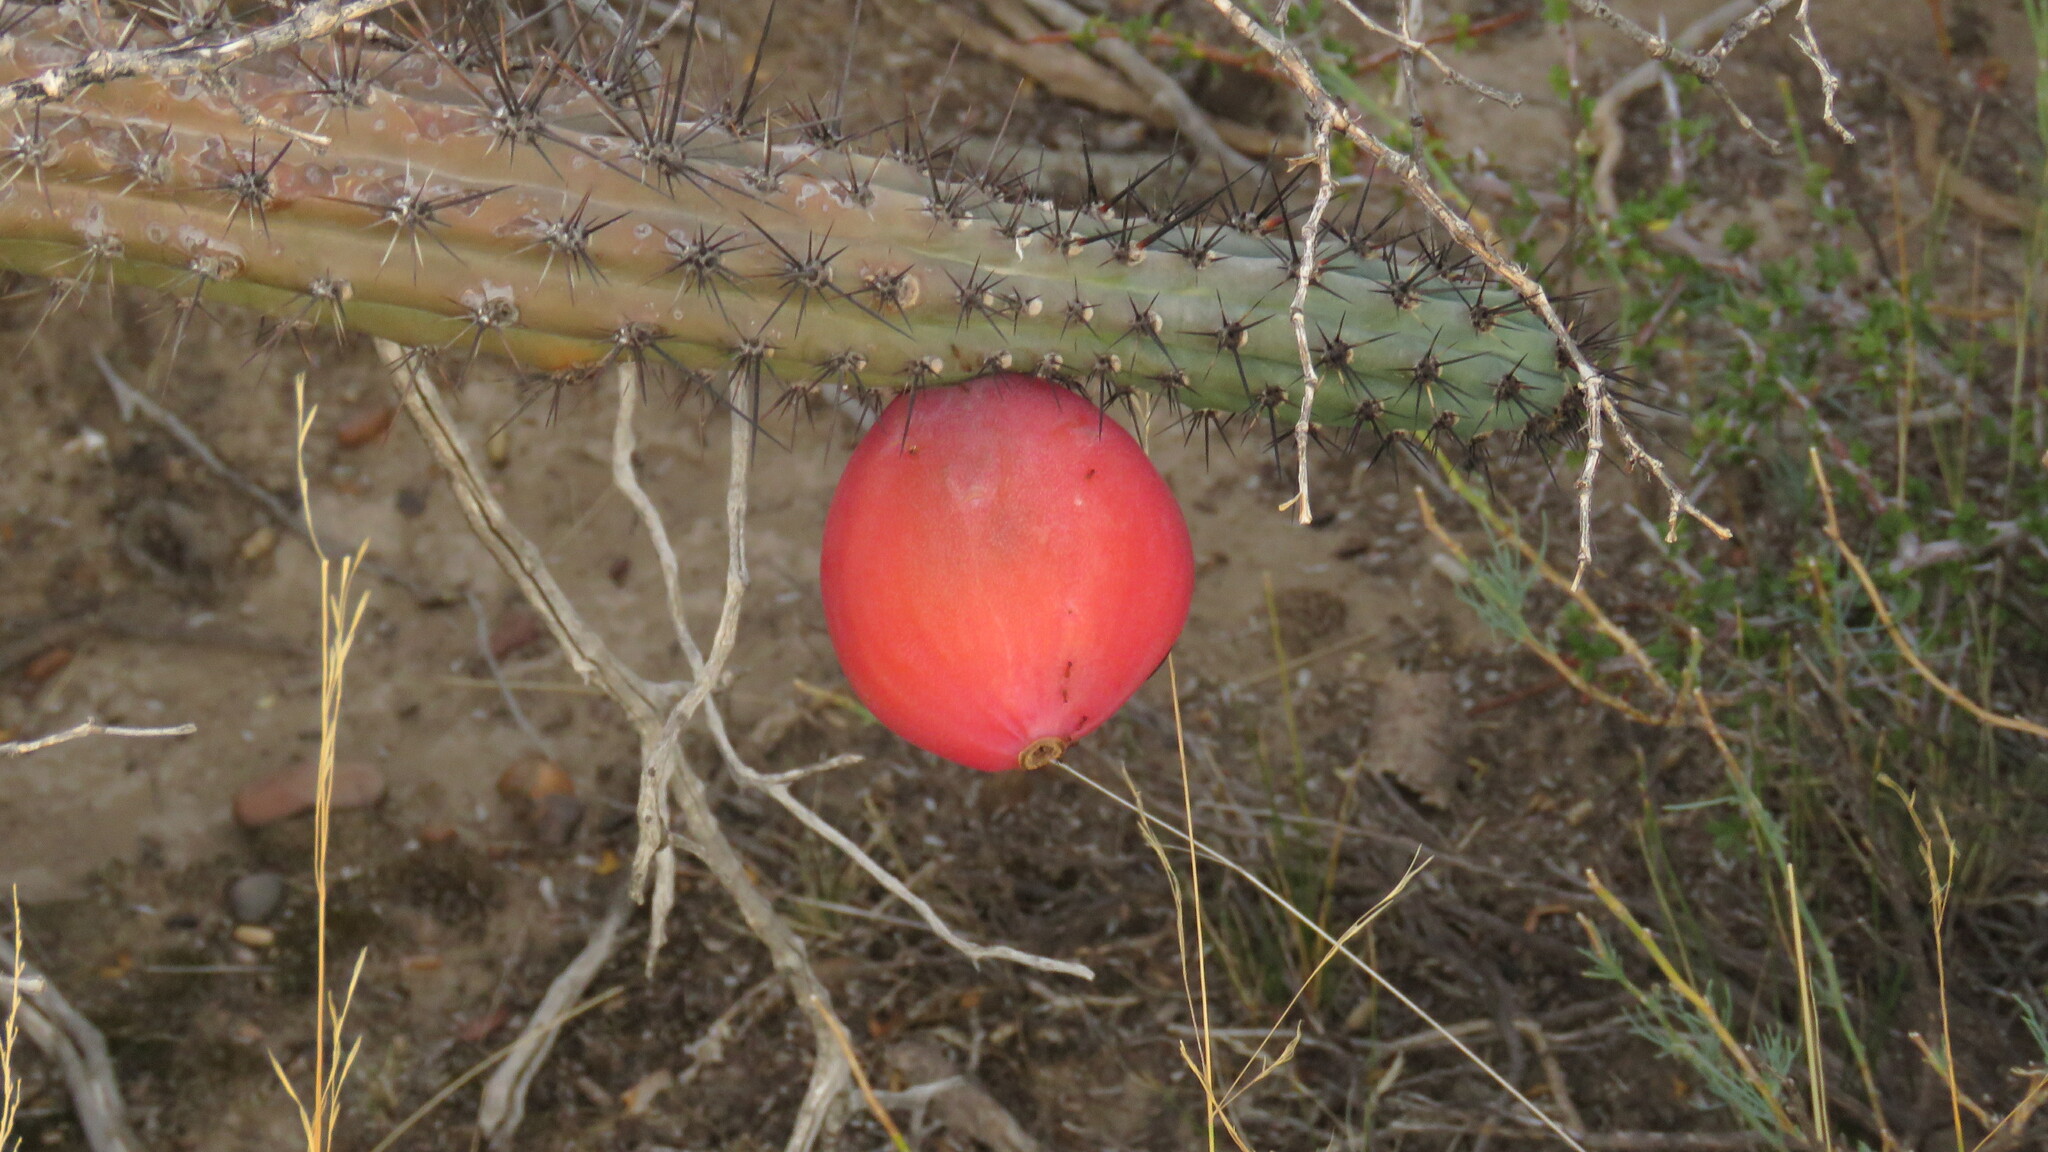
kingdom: Plantae
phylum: Tracheophyta
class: Magnoliopsida
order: Caryophyllales
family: Cactaceae
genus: Cereus
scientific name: Cereus aethiops
